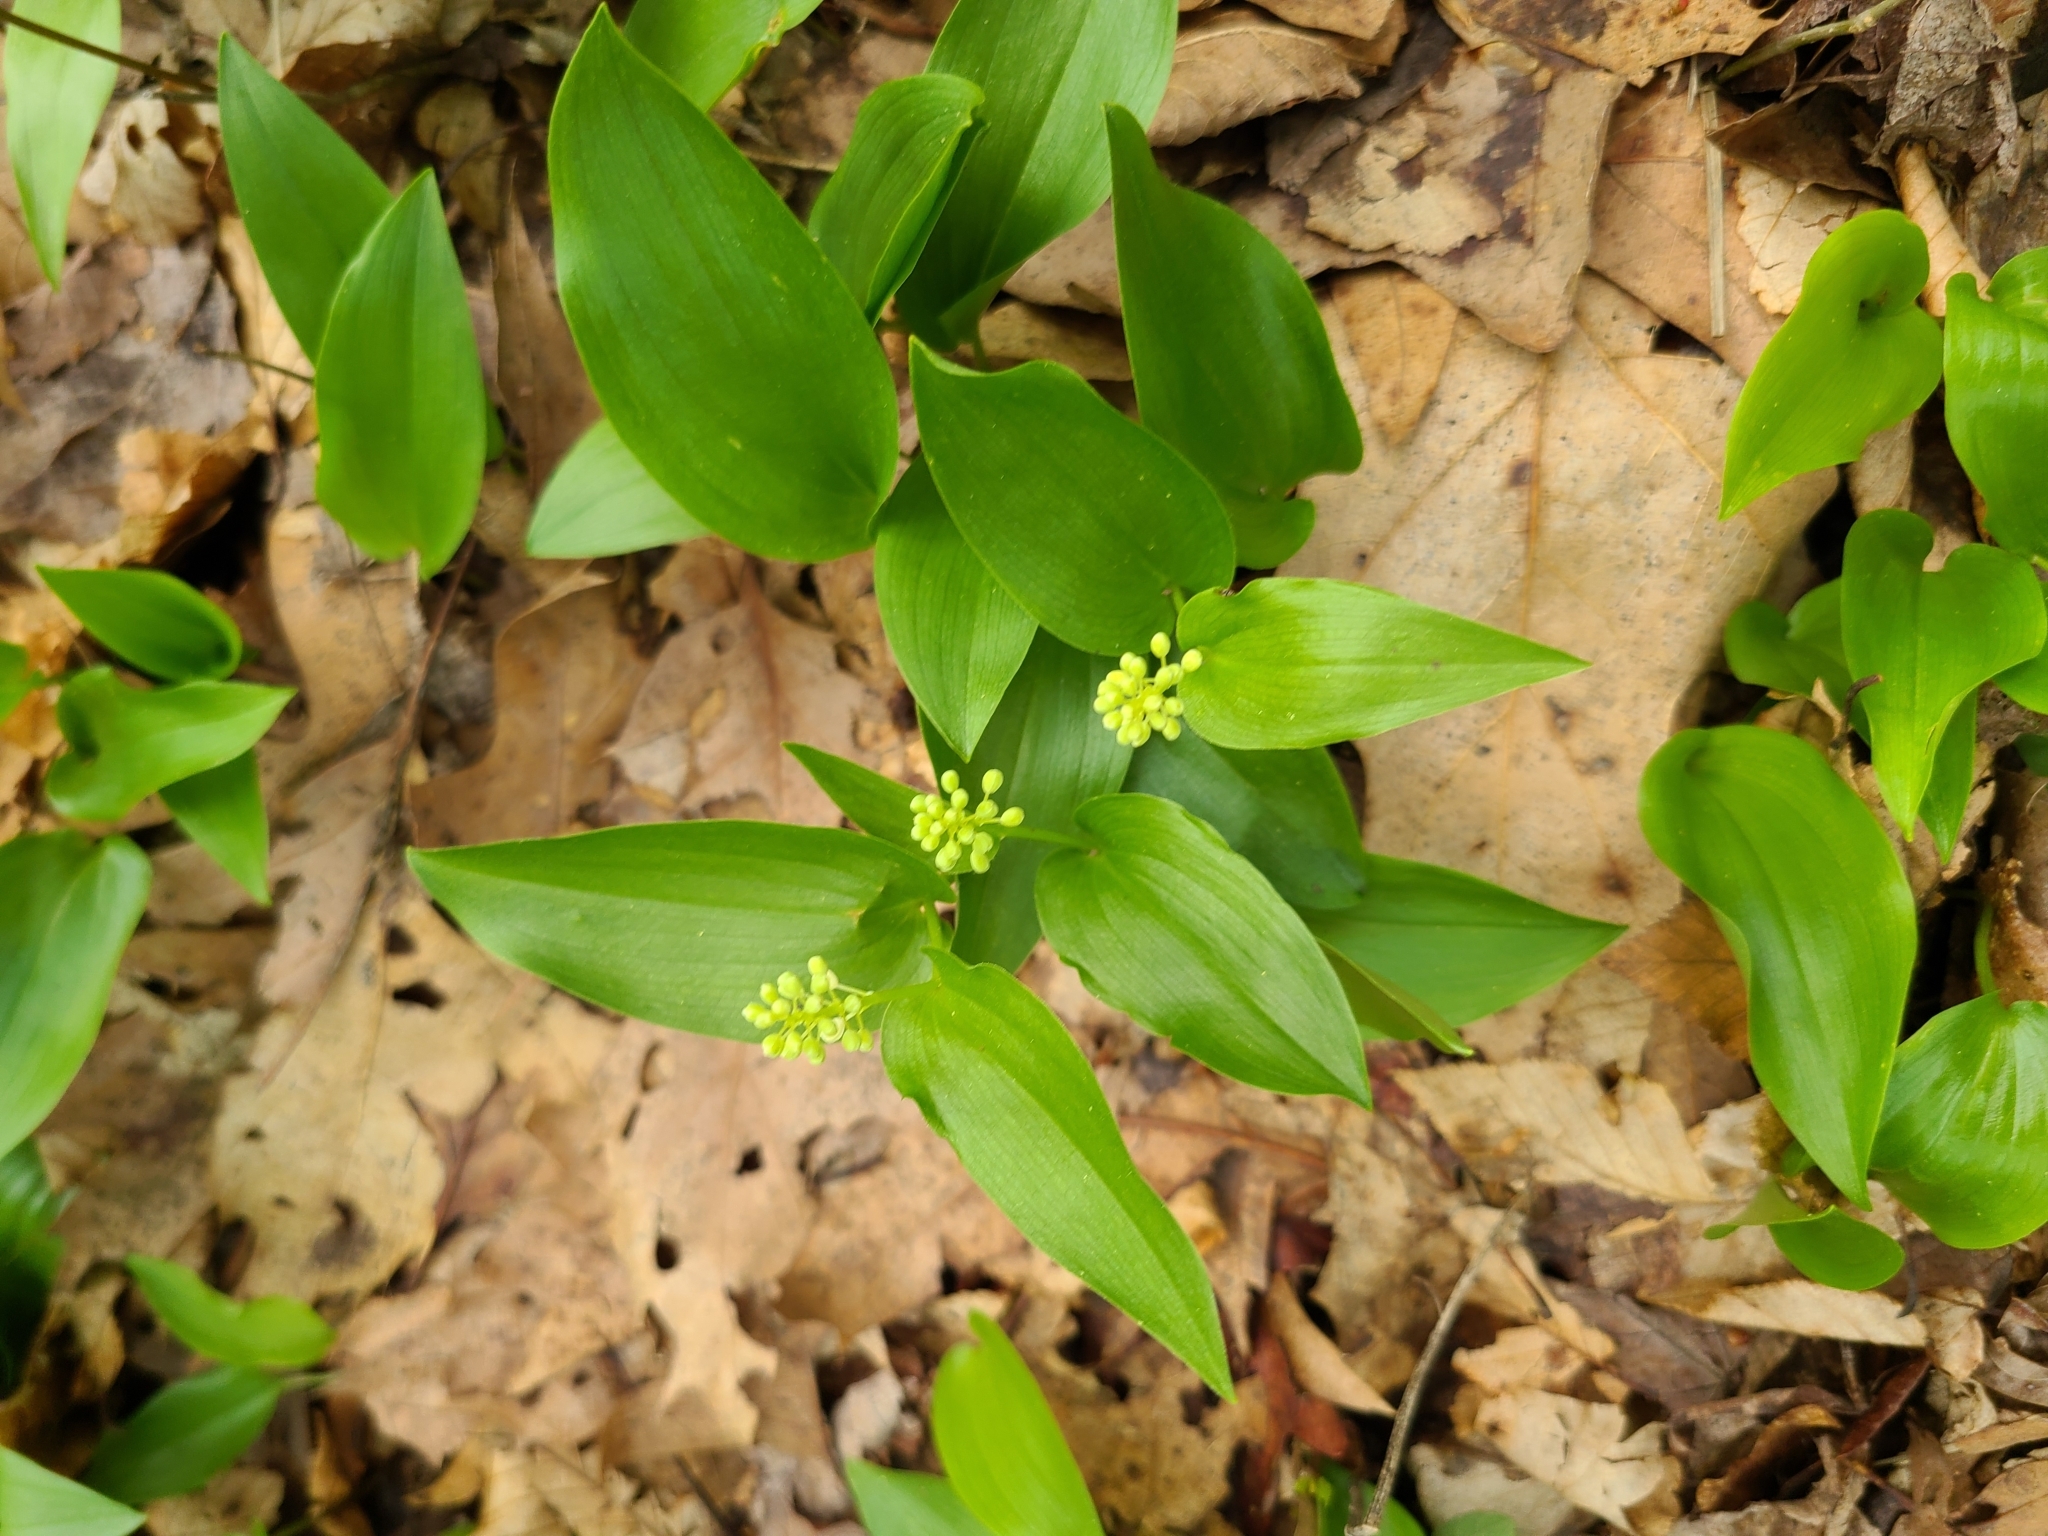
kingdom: Plantae
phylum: Tracheophyta
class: Liliopsida
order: Asparagales
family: Asparagaceae
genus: Maianthemum
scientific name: Maianthemum canadense
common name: False lily-of-the-valley
